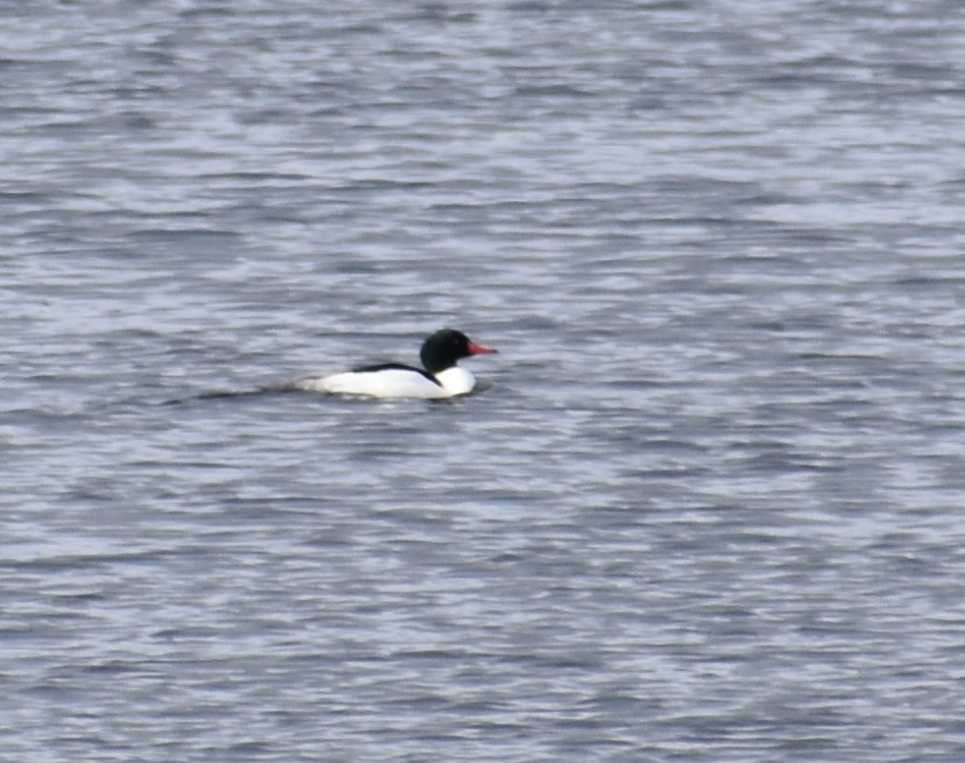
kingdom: Animalia
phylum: Chordata
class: Aves
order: Anseriformes
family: Anatidae
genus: Mergus
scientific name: Mergus merganser
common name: Common merganser
